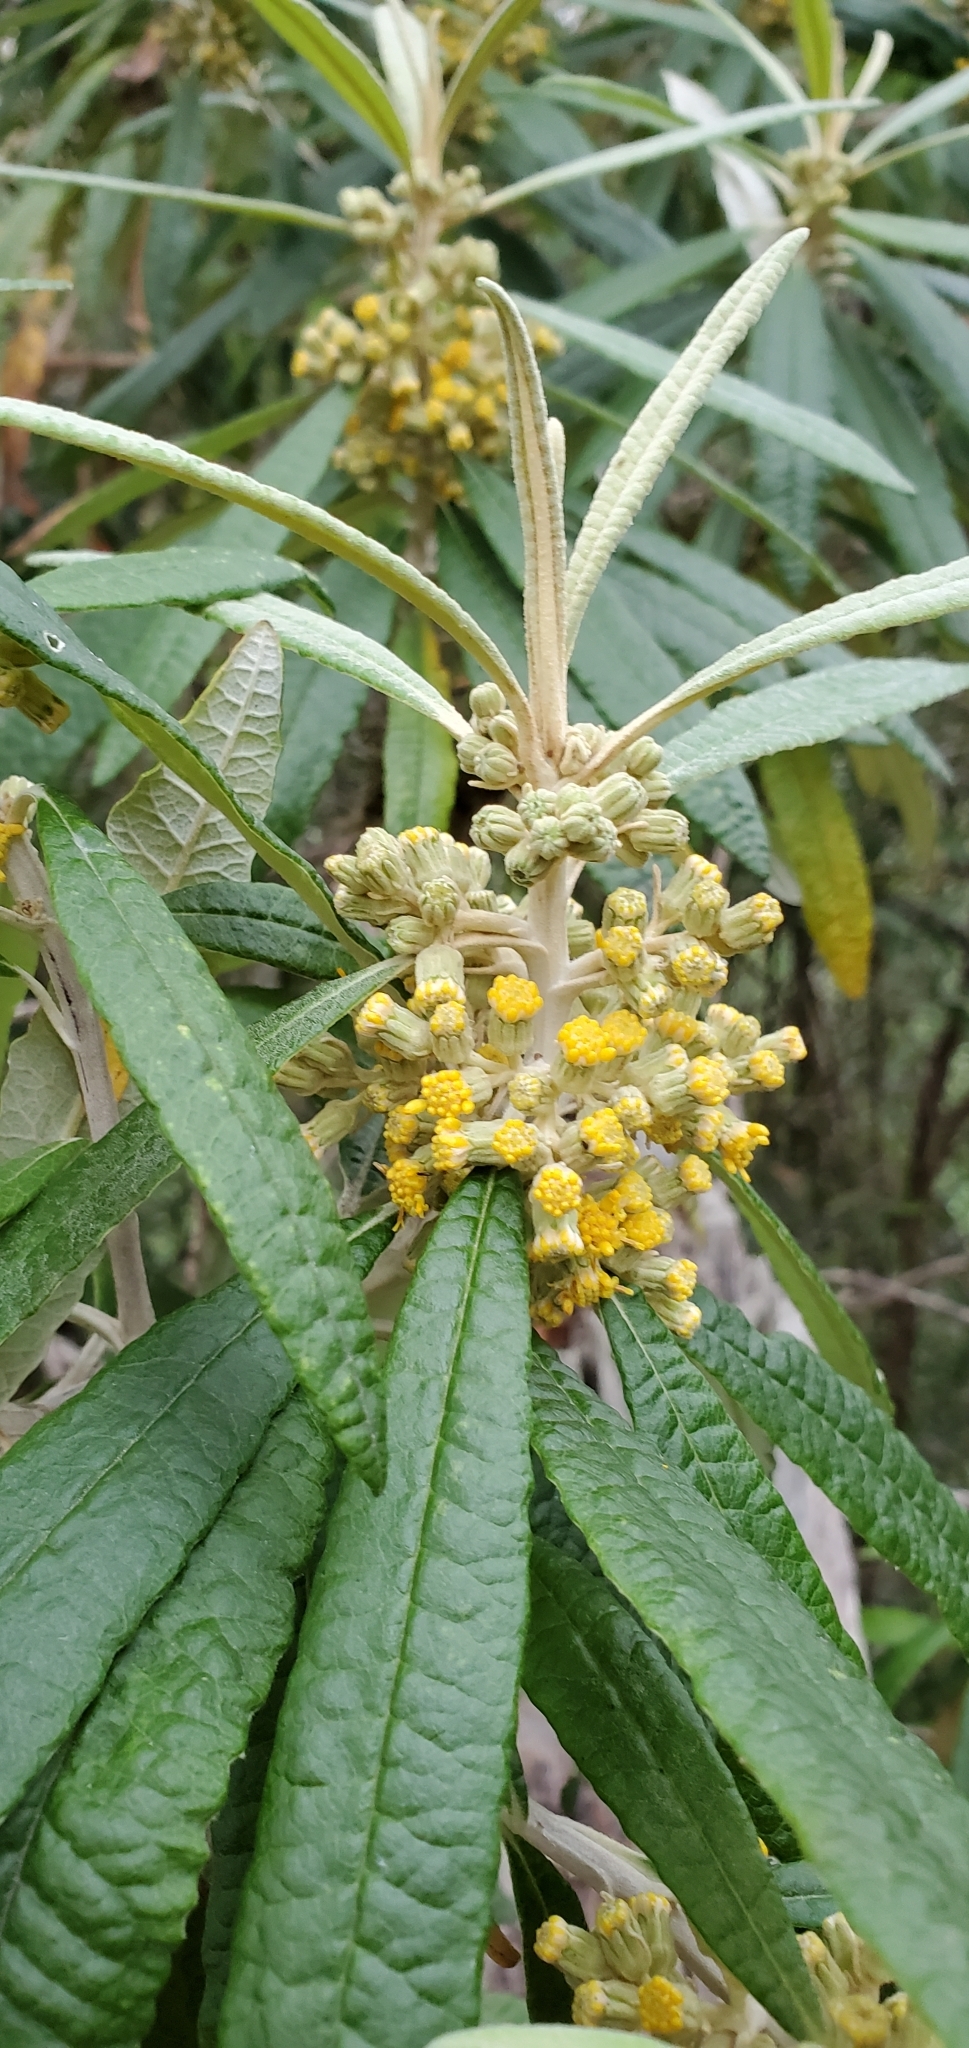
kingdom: Plantae
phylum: Tracheophyta
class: Magnoliopsida
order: Asterales
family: Asteraceae
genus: Bedfordia
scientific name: Bedfordia salicina
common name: Blanketleaf
